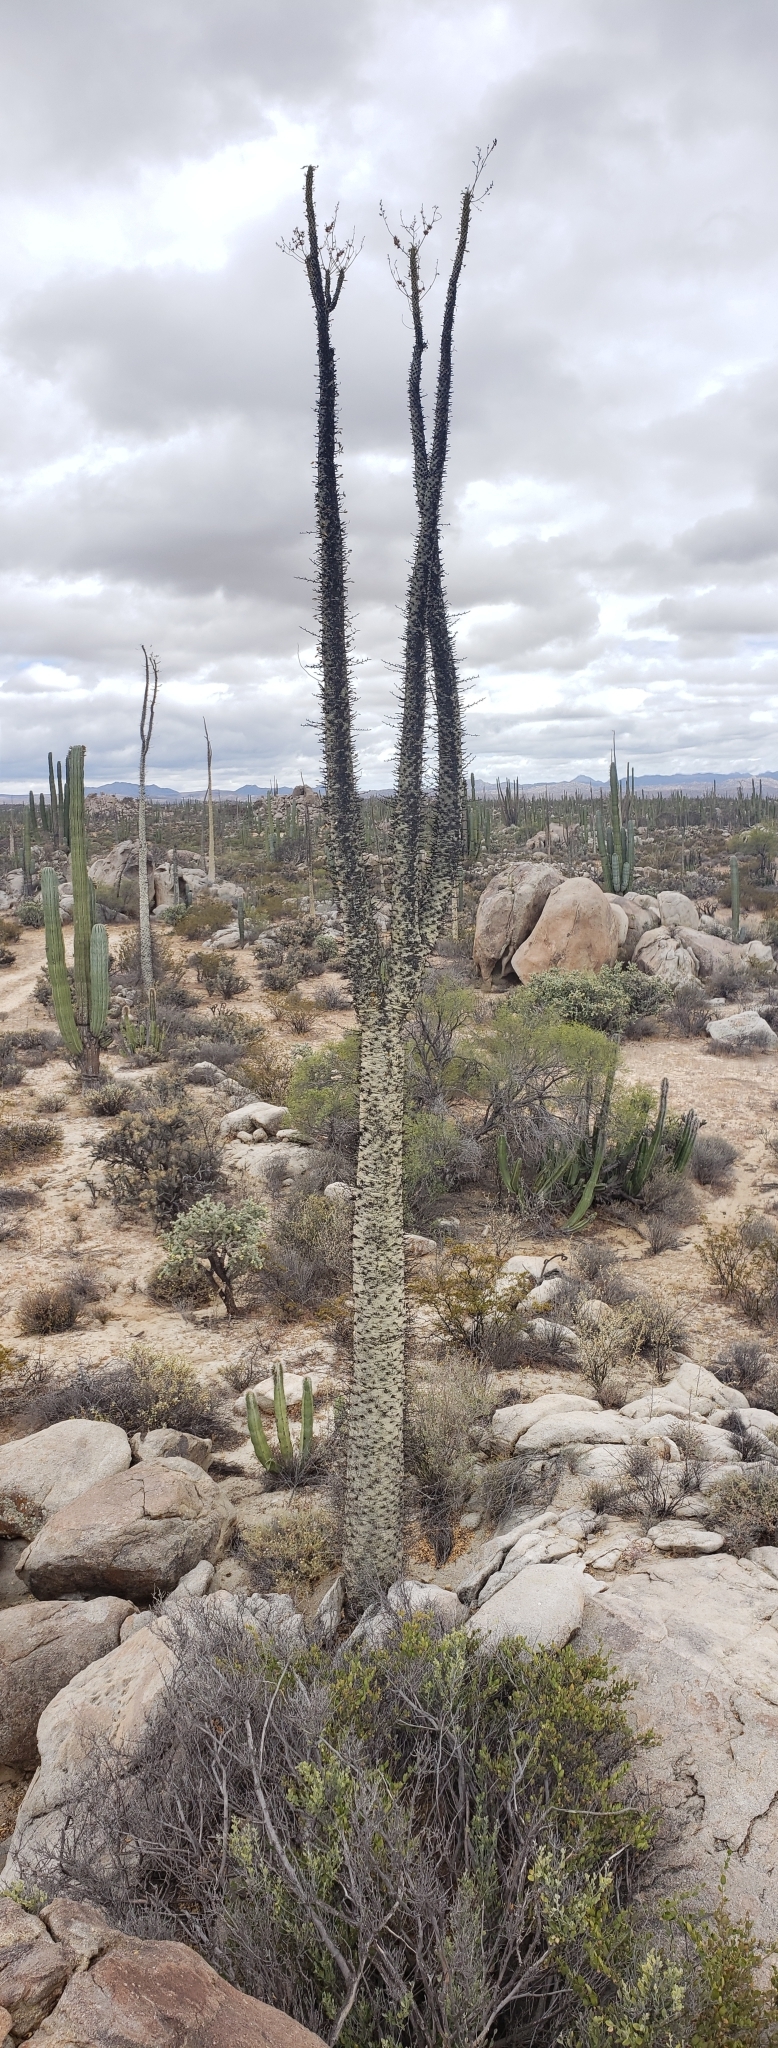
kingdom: Plantae
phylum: Tracheophyta
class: Magnoliopsida
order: Ericales
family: Fouquieriaceae
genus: Fouquieria
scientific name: Fouquieria columnaris
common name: Boojumtree
